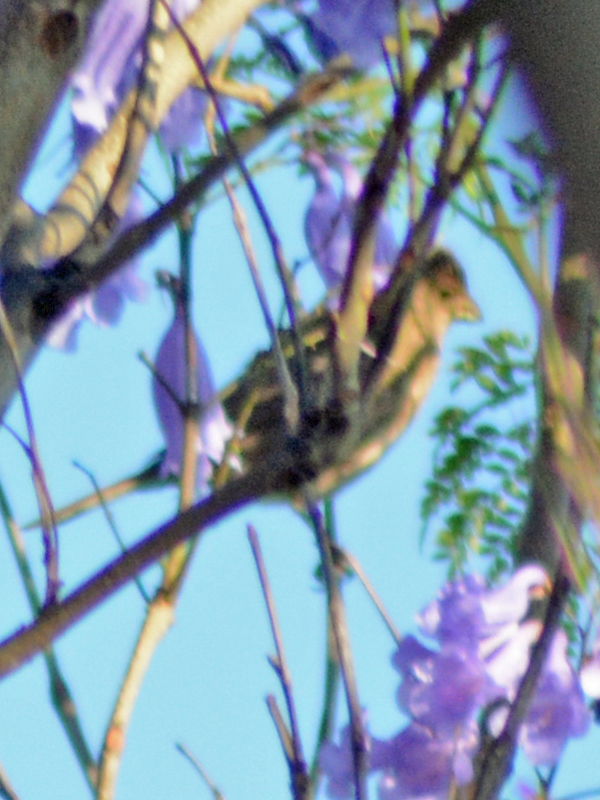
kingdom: Animalia
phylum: Chordata
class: Aves
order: Passeriformes
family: Passeridae
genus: Passer
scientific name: Passer domesticus
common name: House sparrow
